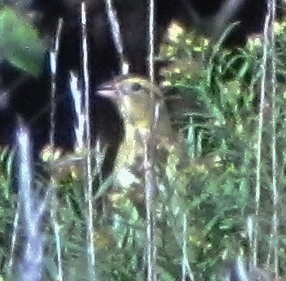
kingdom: Animalia
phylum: Chordata
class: Aves
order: Passeriformes
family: Icteridae
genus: Dolichonyx
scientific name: Dolichonyx oryzivorus
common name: Bobolink
